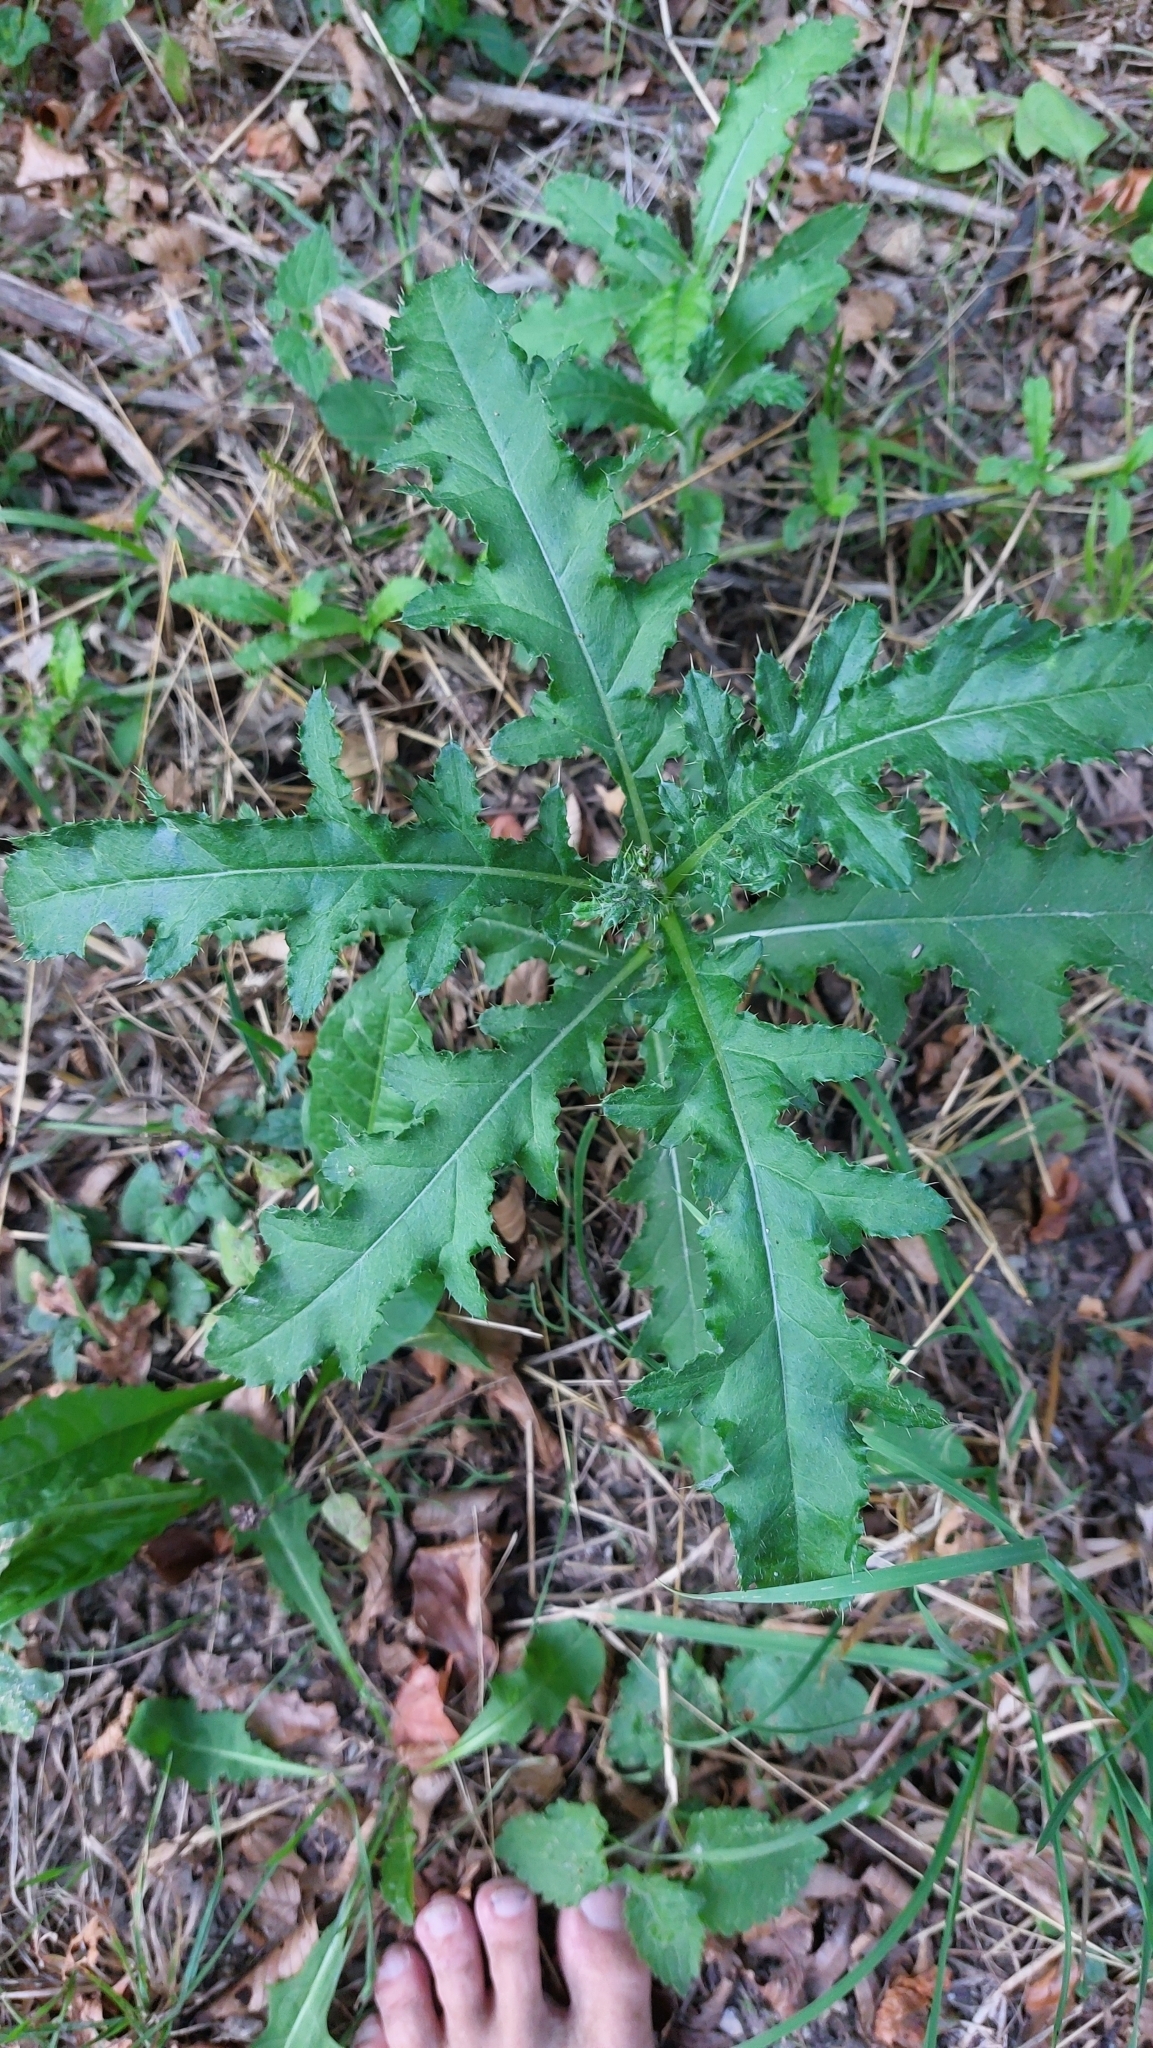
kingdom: Plantae
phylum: Tracheophyta
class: Magnoliopsida
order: Asterales
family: Asteraceae
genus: Cirsium
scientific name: Cirsium arvense
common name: Creeping thistle
